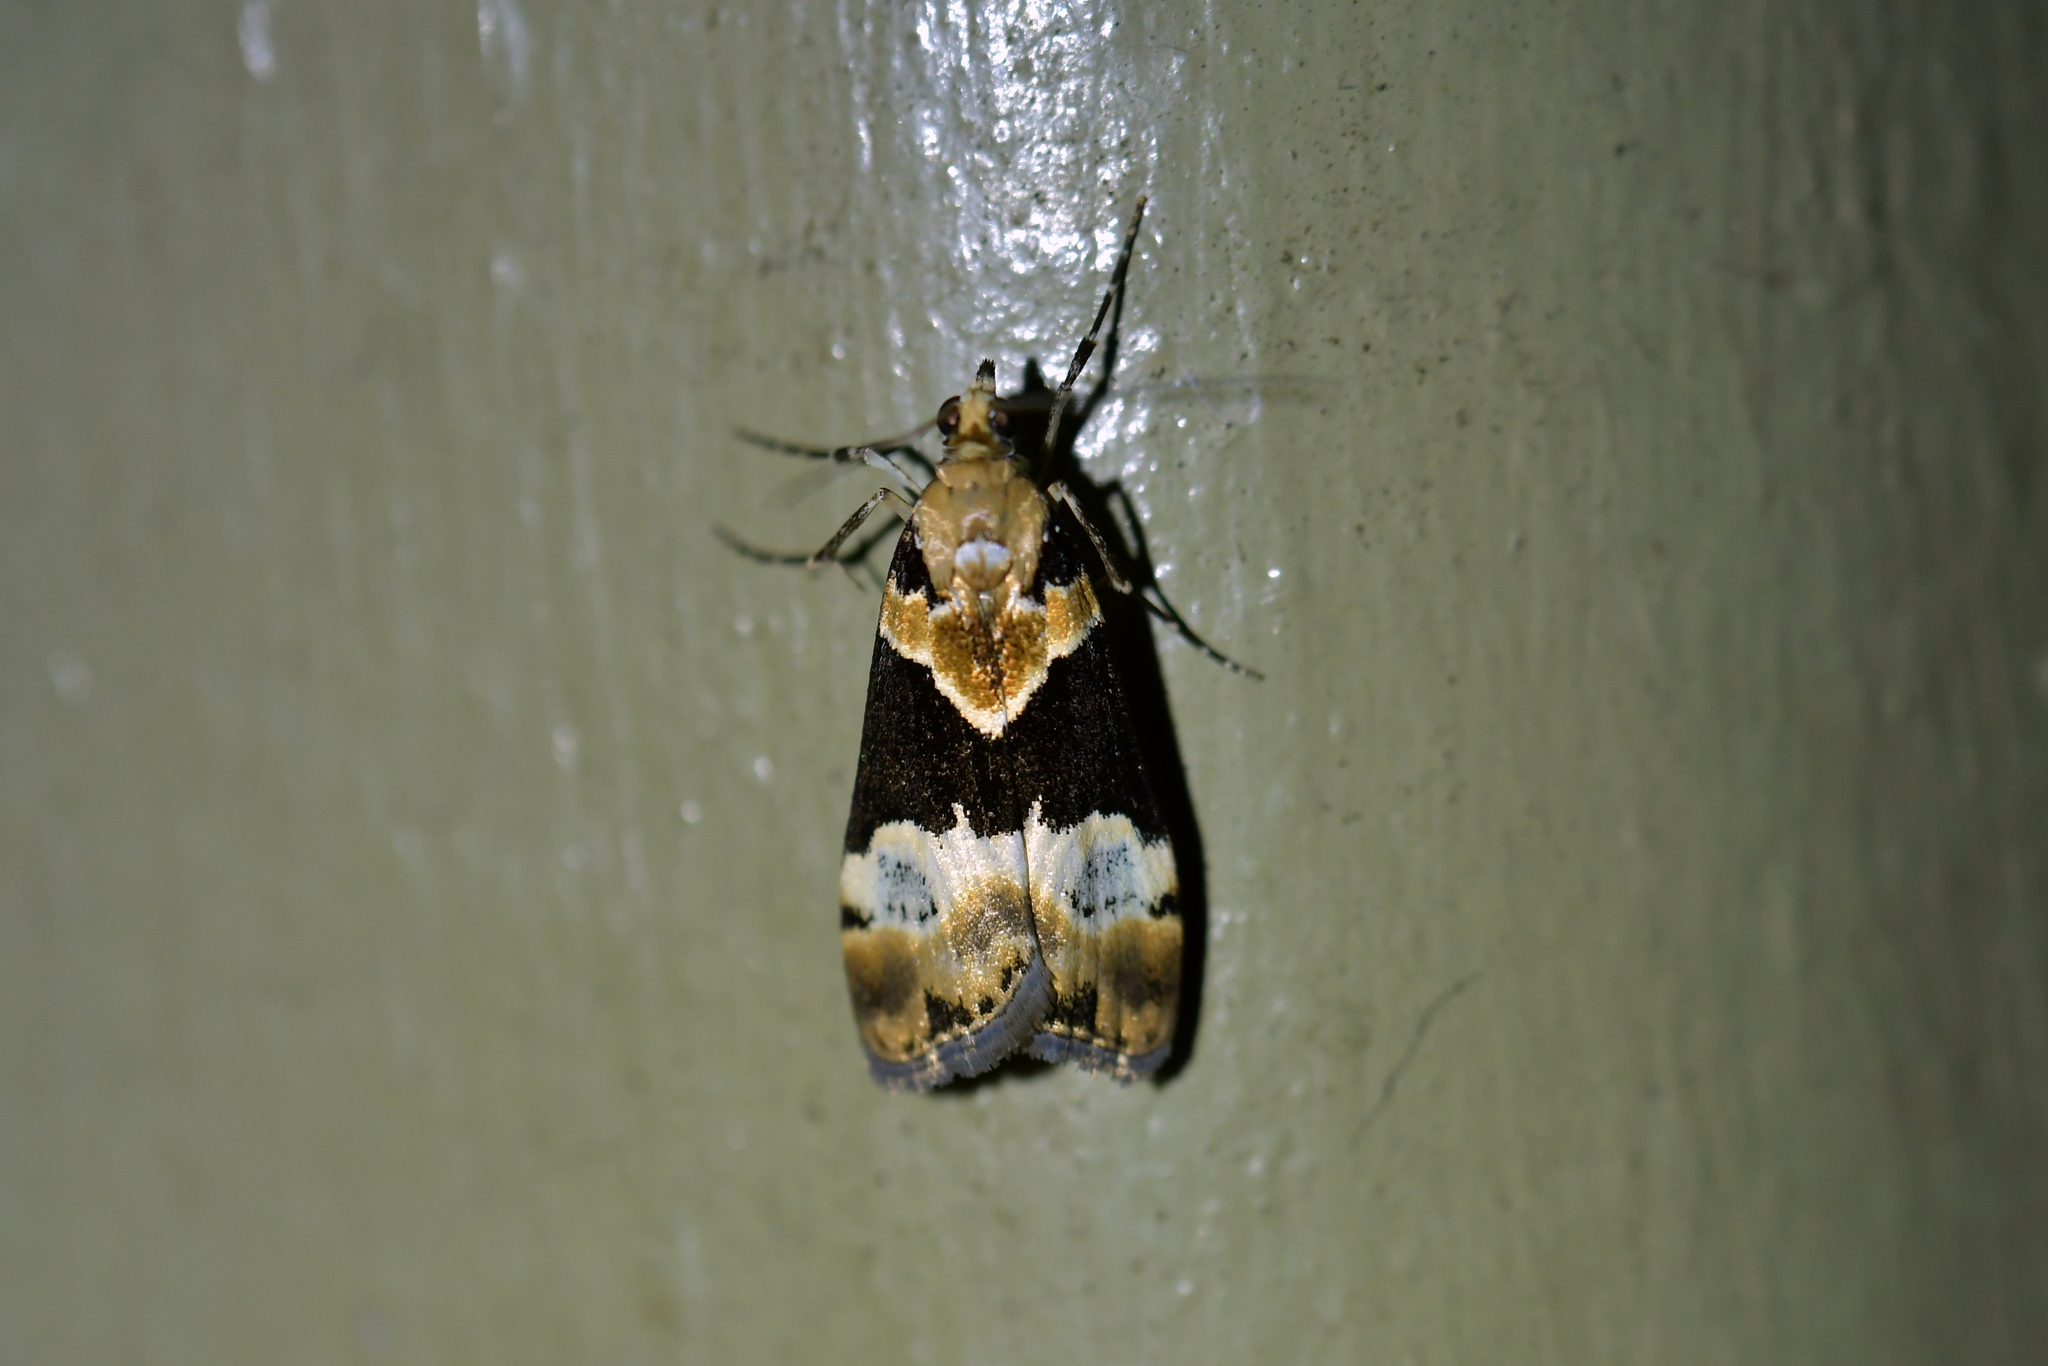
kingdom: Animalia
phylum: Arthropoda
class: Insecta
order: Lepidoptera
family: Crambidae
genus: Eudonia
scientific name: Eudonia aspidota
